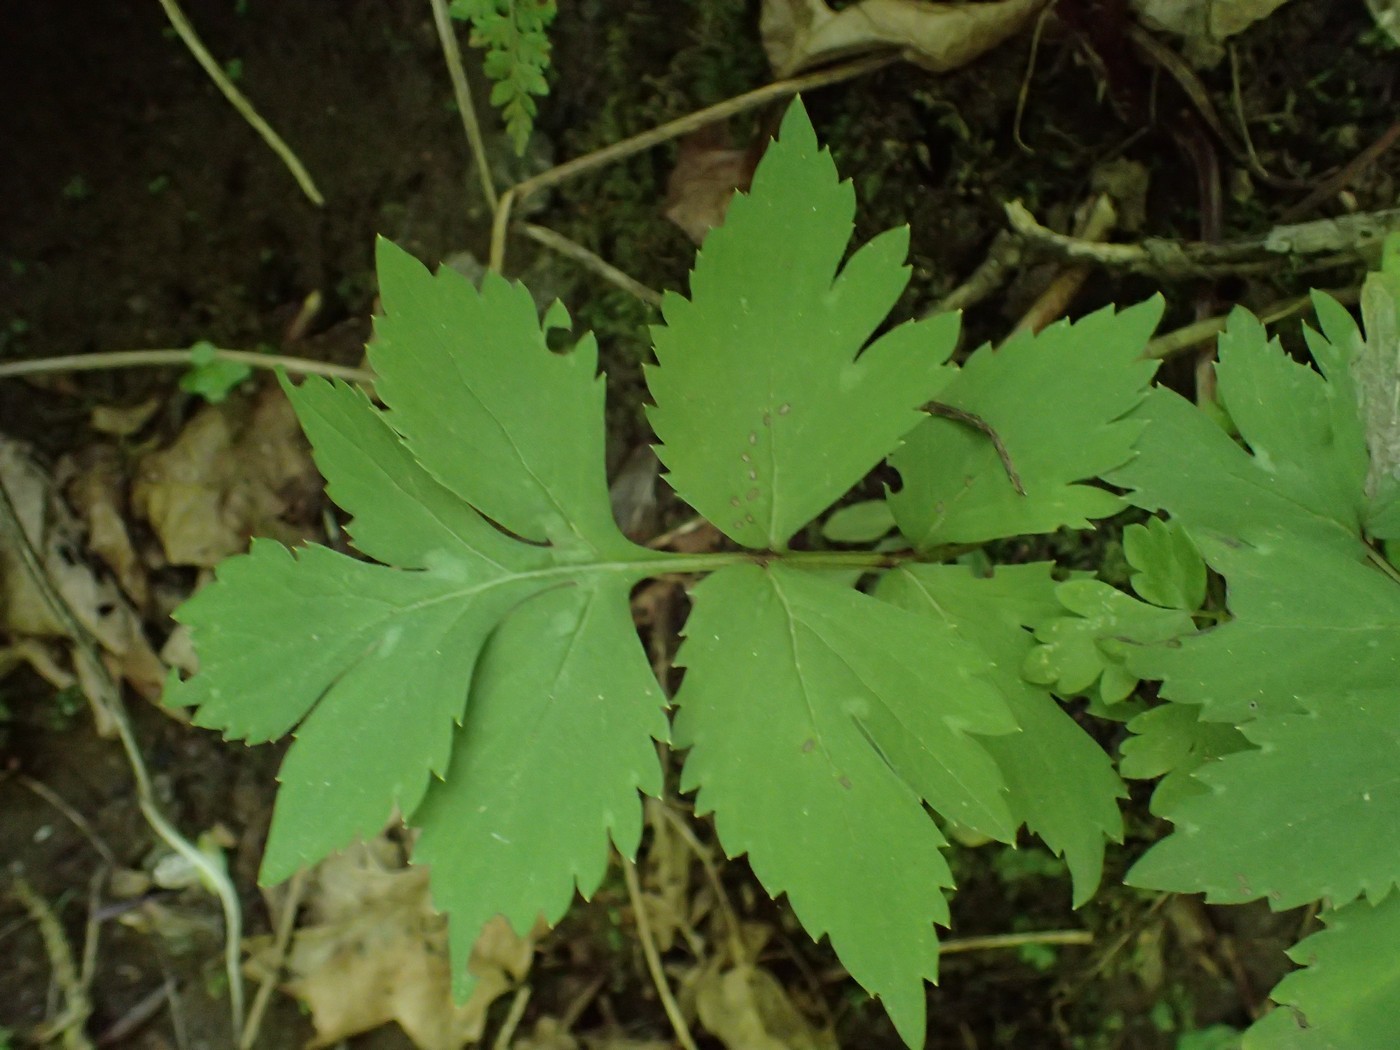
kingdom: Plantae
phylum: Tracheophyta
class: Magnoliopsida
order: Boraginales
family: Hydrophyllaceae
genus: Hydrophyllum
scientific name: Hydrophyllum virginianum
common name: Virginia waterleaf
